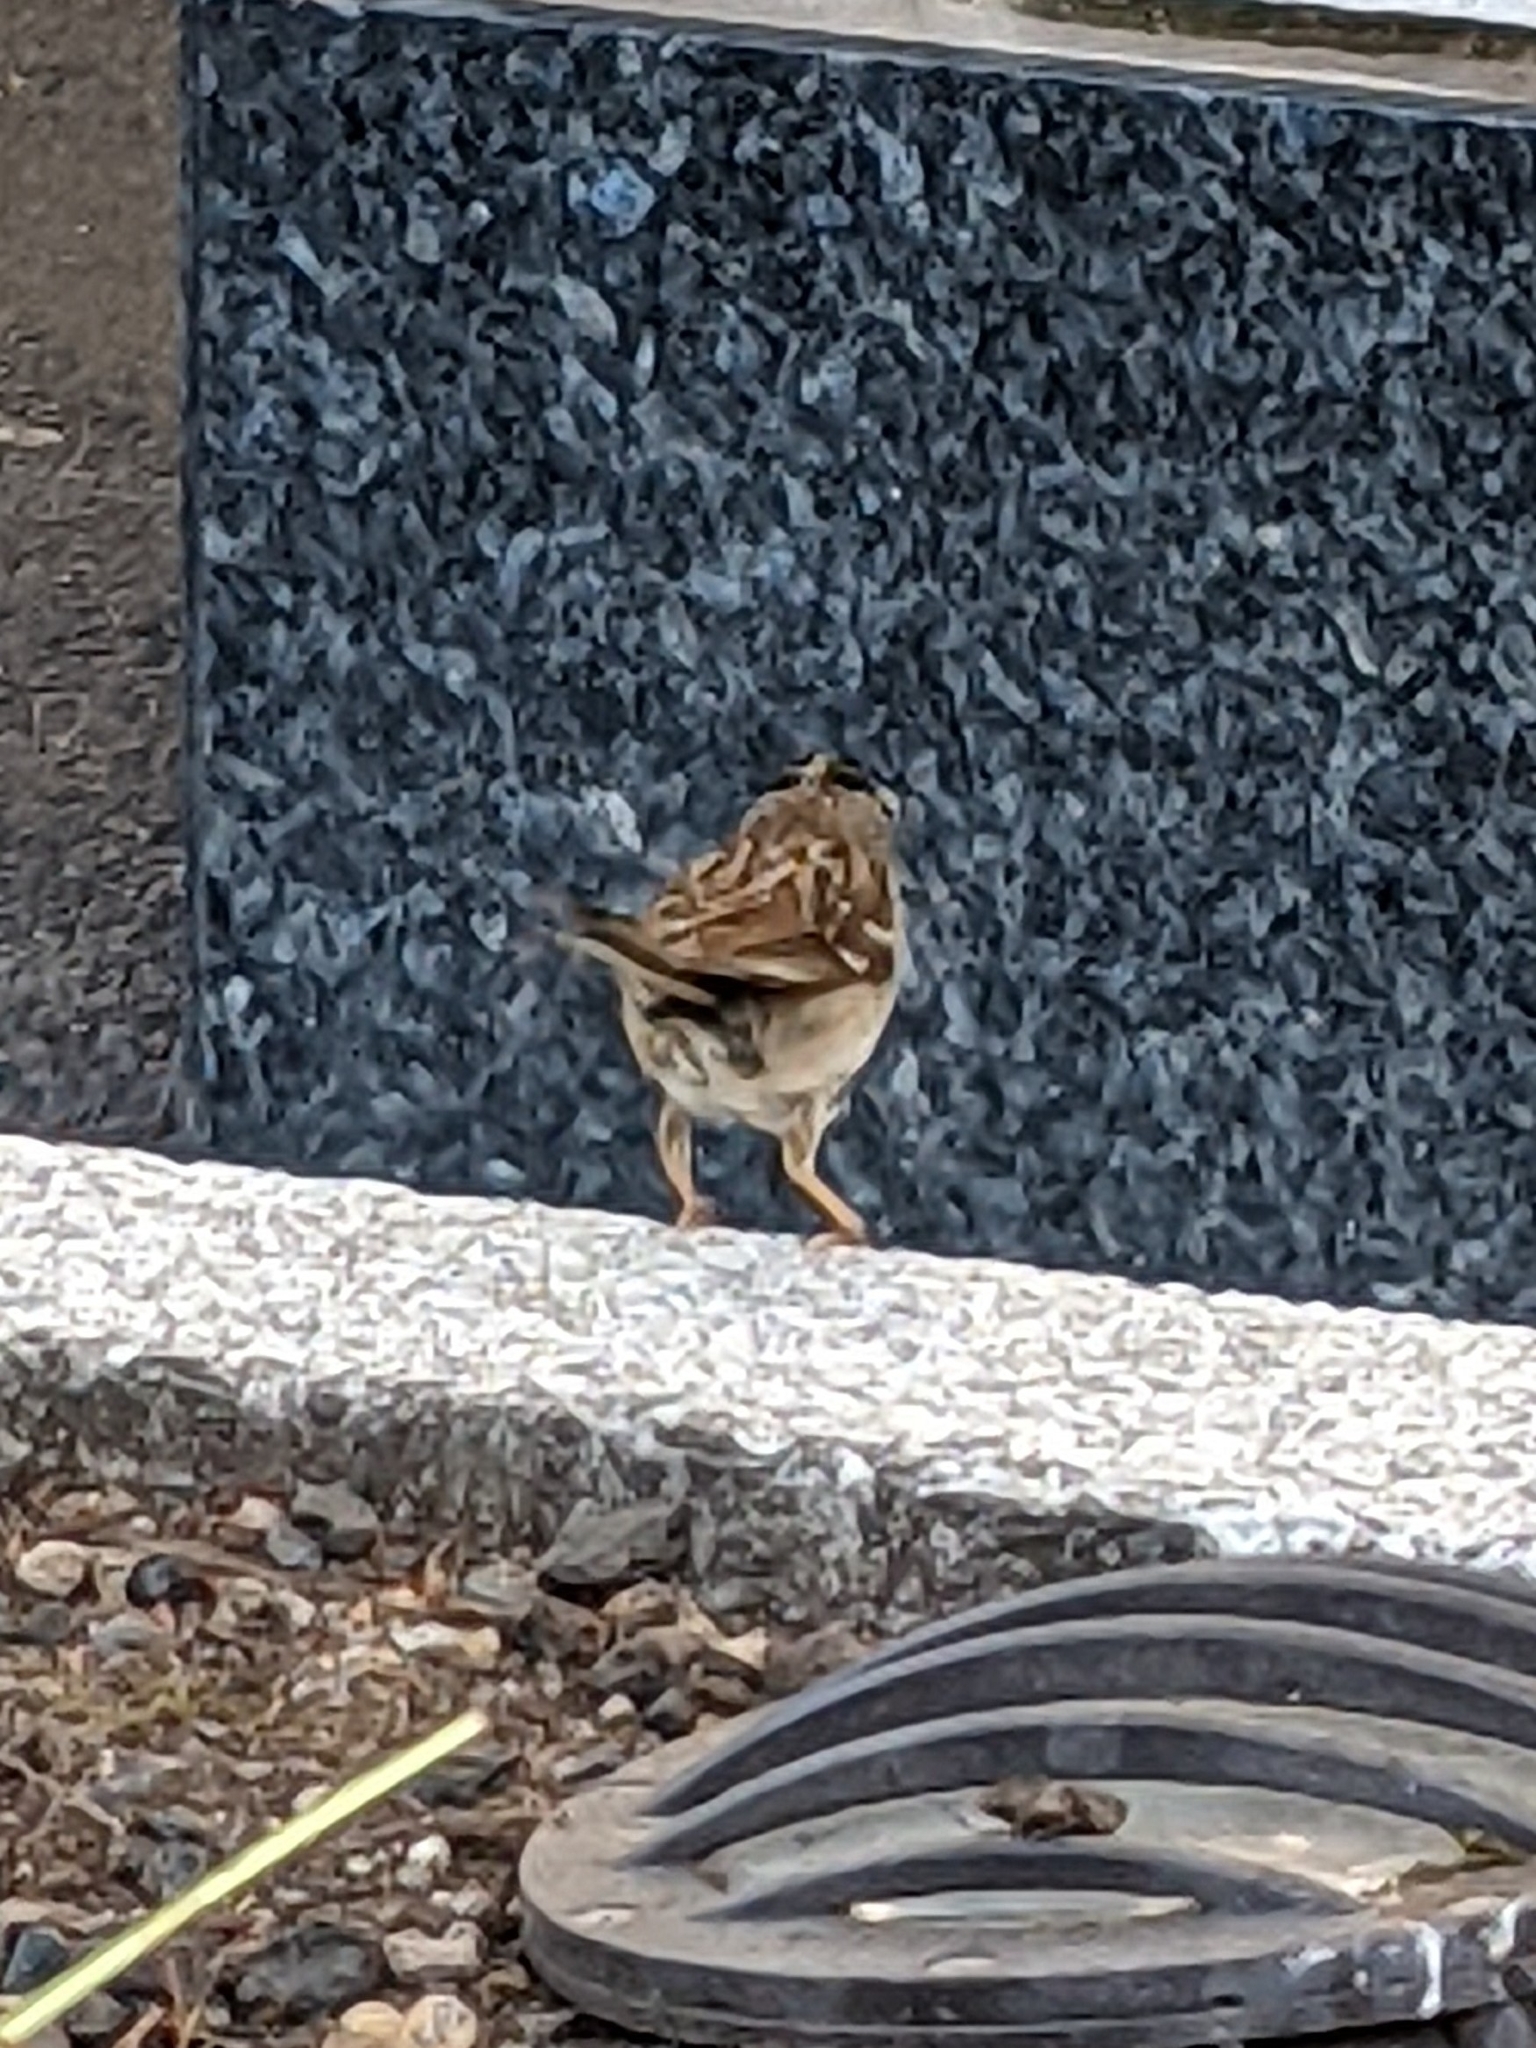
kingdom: Animalia
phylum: Chordata
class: Aves
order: Passeriformes
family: Passerellidae
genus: Zonotrichia
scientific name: Zonotrichia leucophrys
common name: White-crowned sparrow
